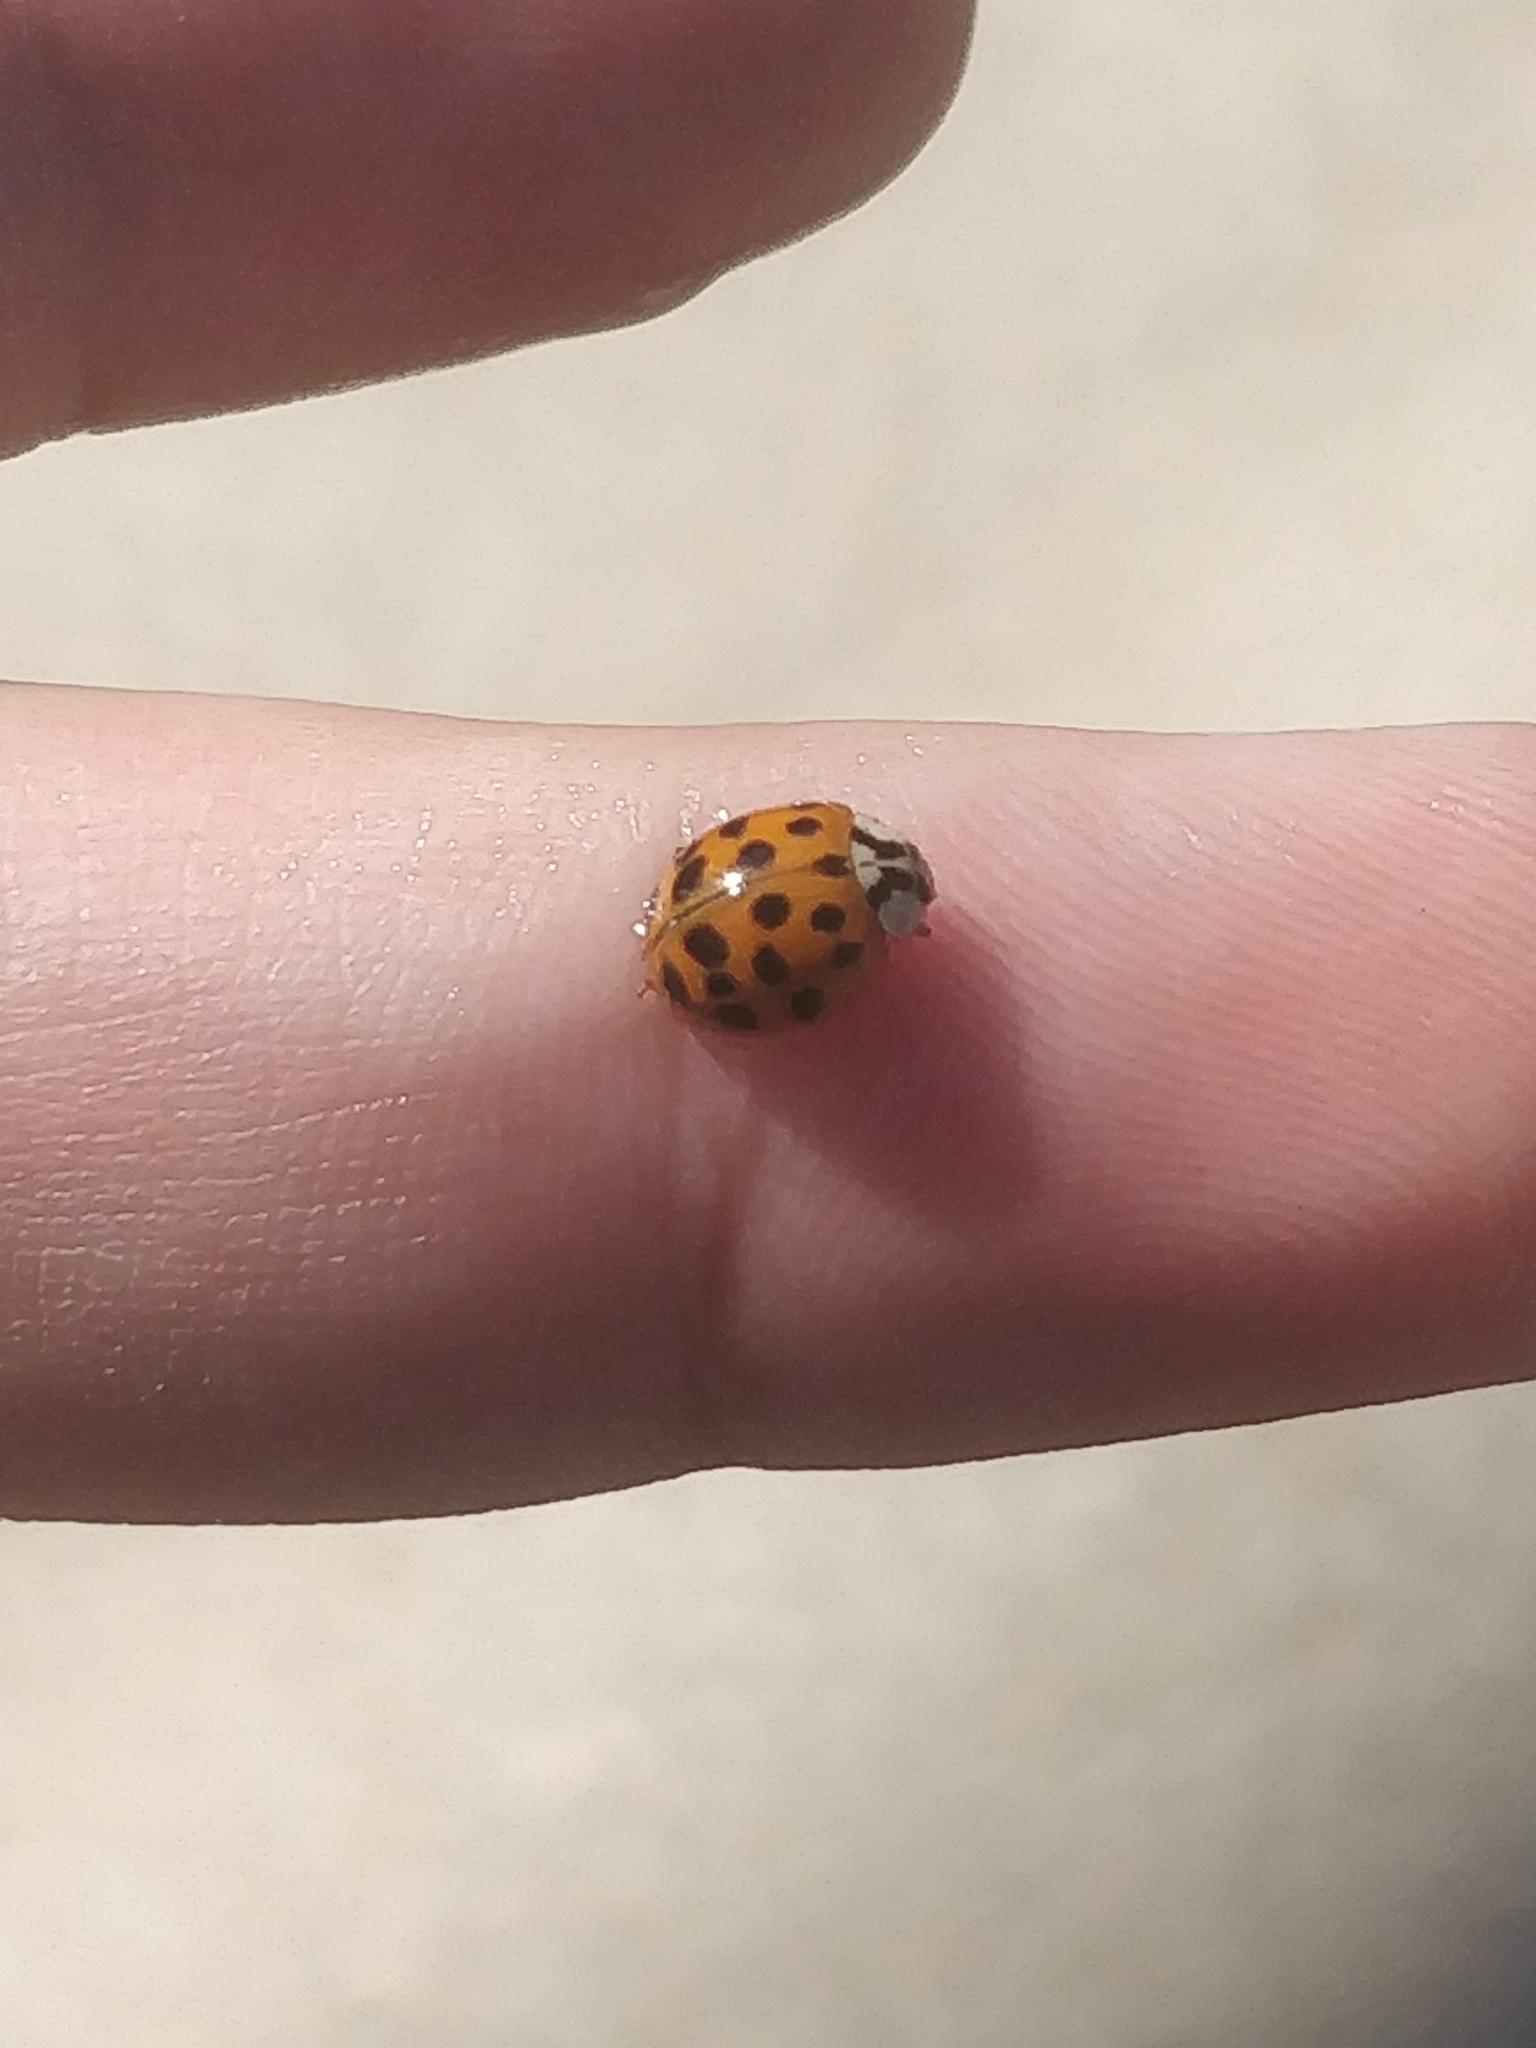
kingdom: Animalia
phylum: Arthropoda
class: Insecta
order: Coleoptera
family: Coccinellidae
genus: Harmonia
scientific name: Harmonia axyridis
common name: Harlequin ladybird
